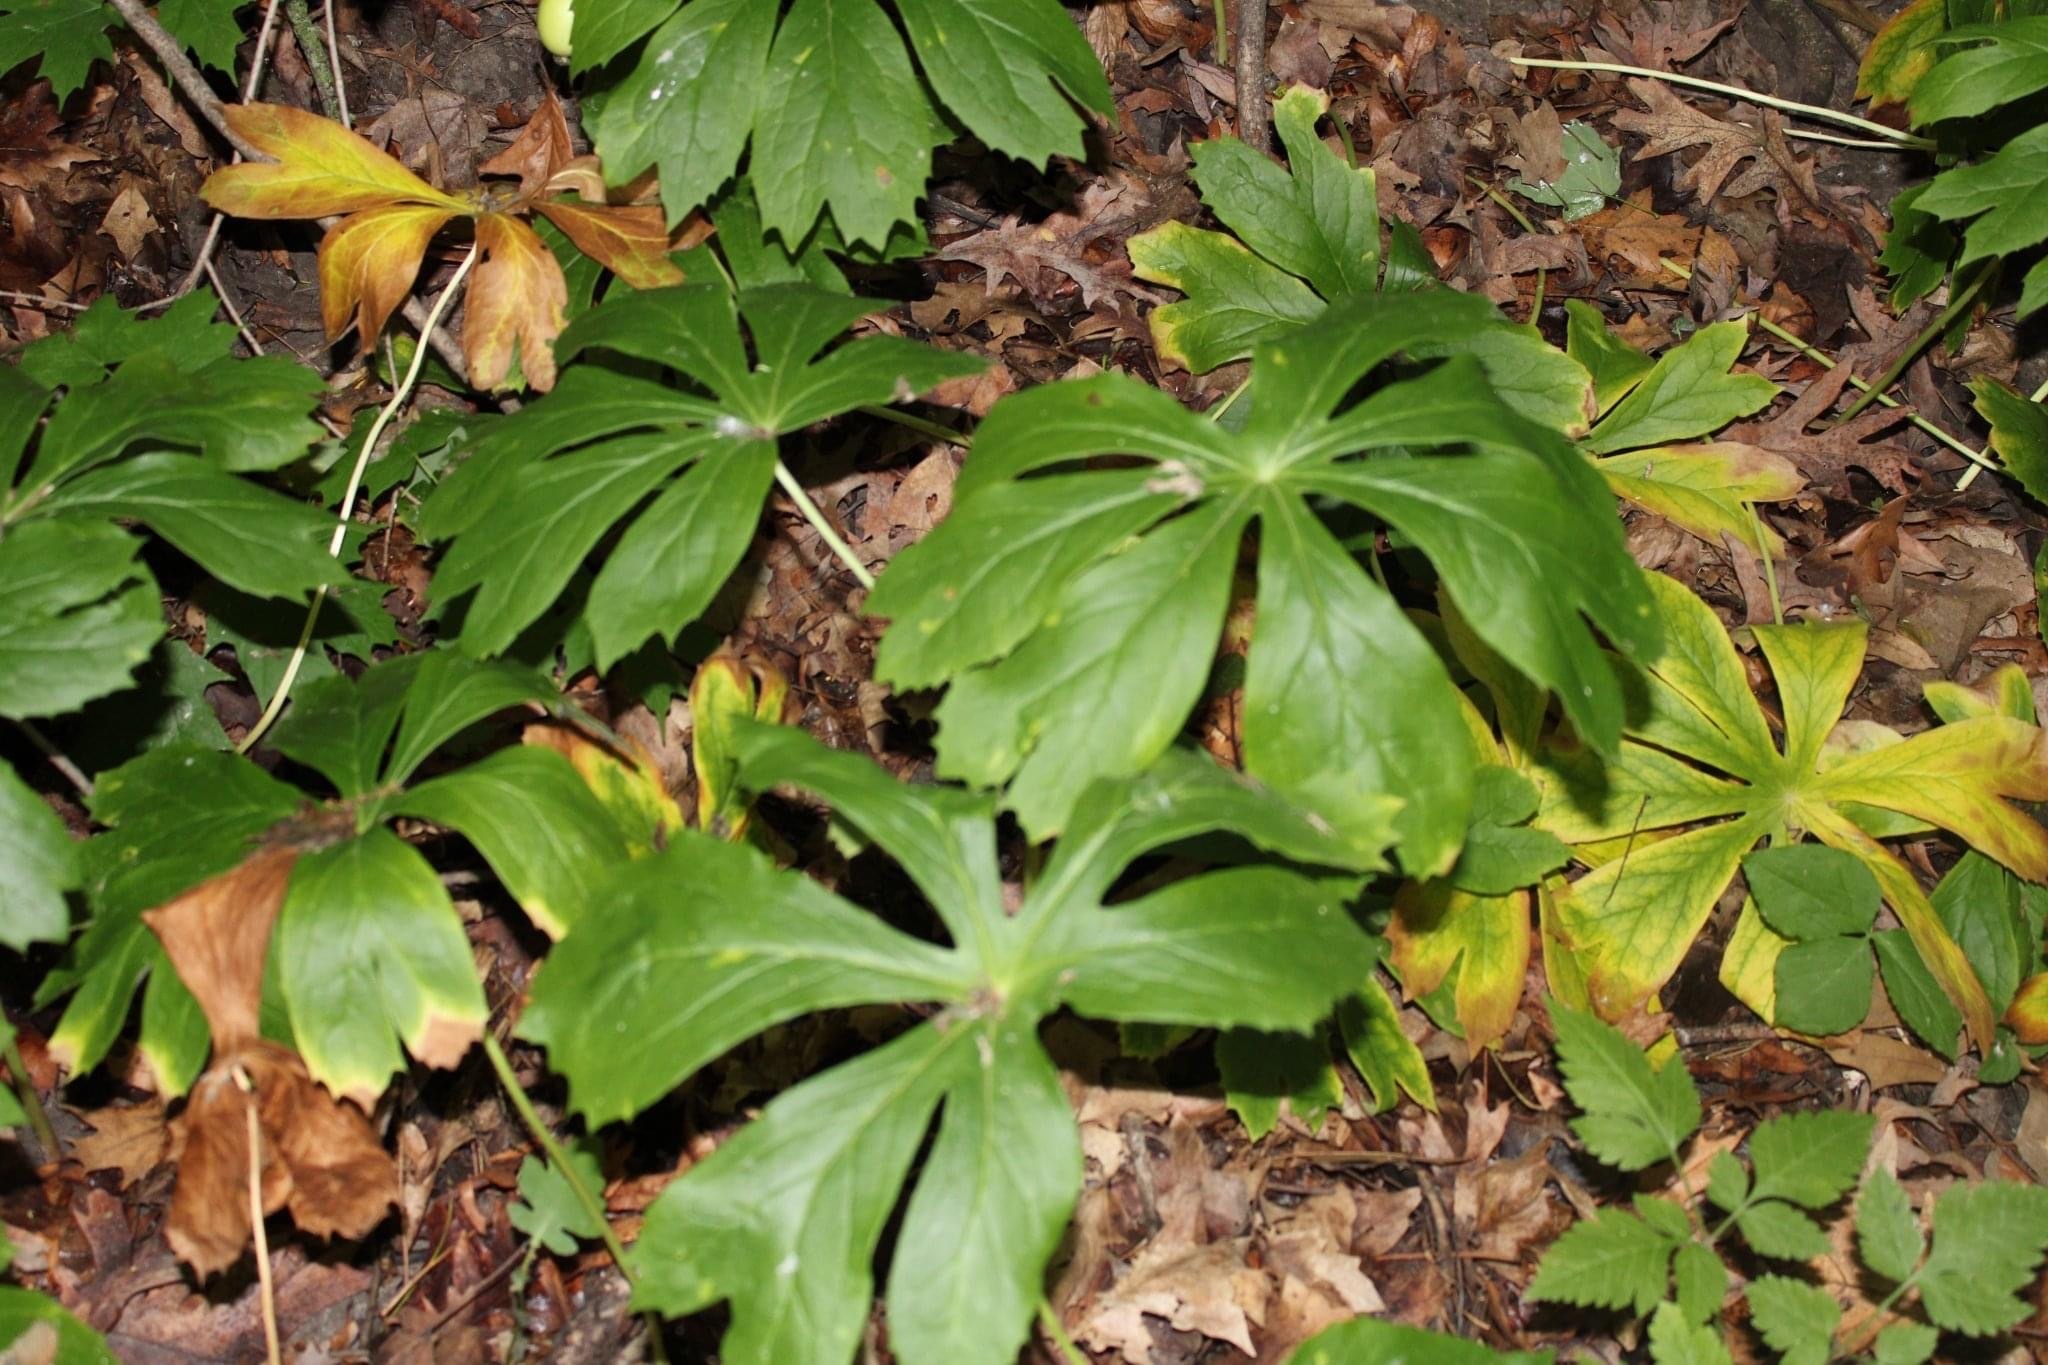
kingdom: Plantae
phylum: Tracheophyta
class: Magnoliopsida
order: Ranunculales
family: Berberidaceae
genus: Podophyllum
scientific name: Podophyllum peltatum
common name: Wild mandrake
